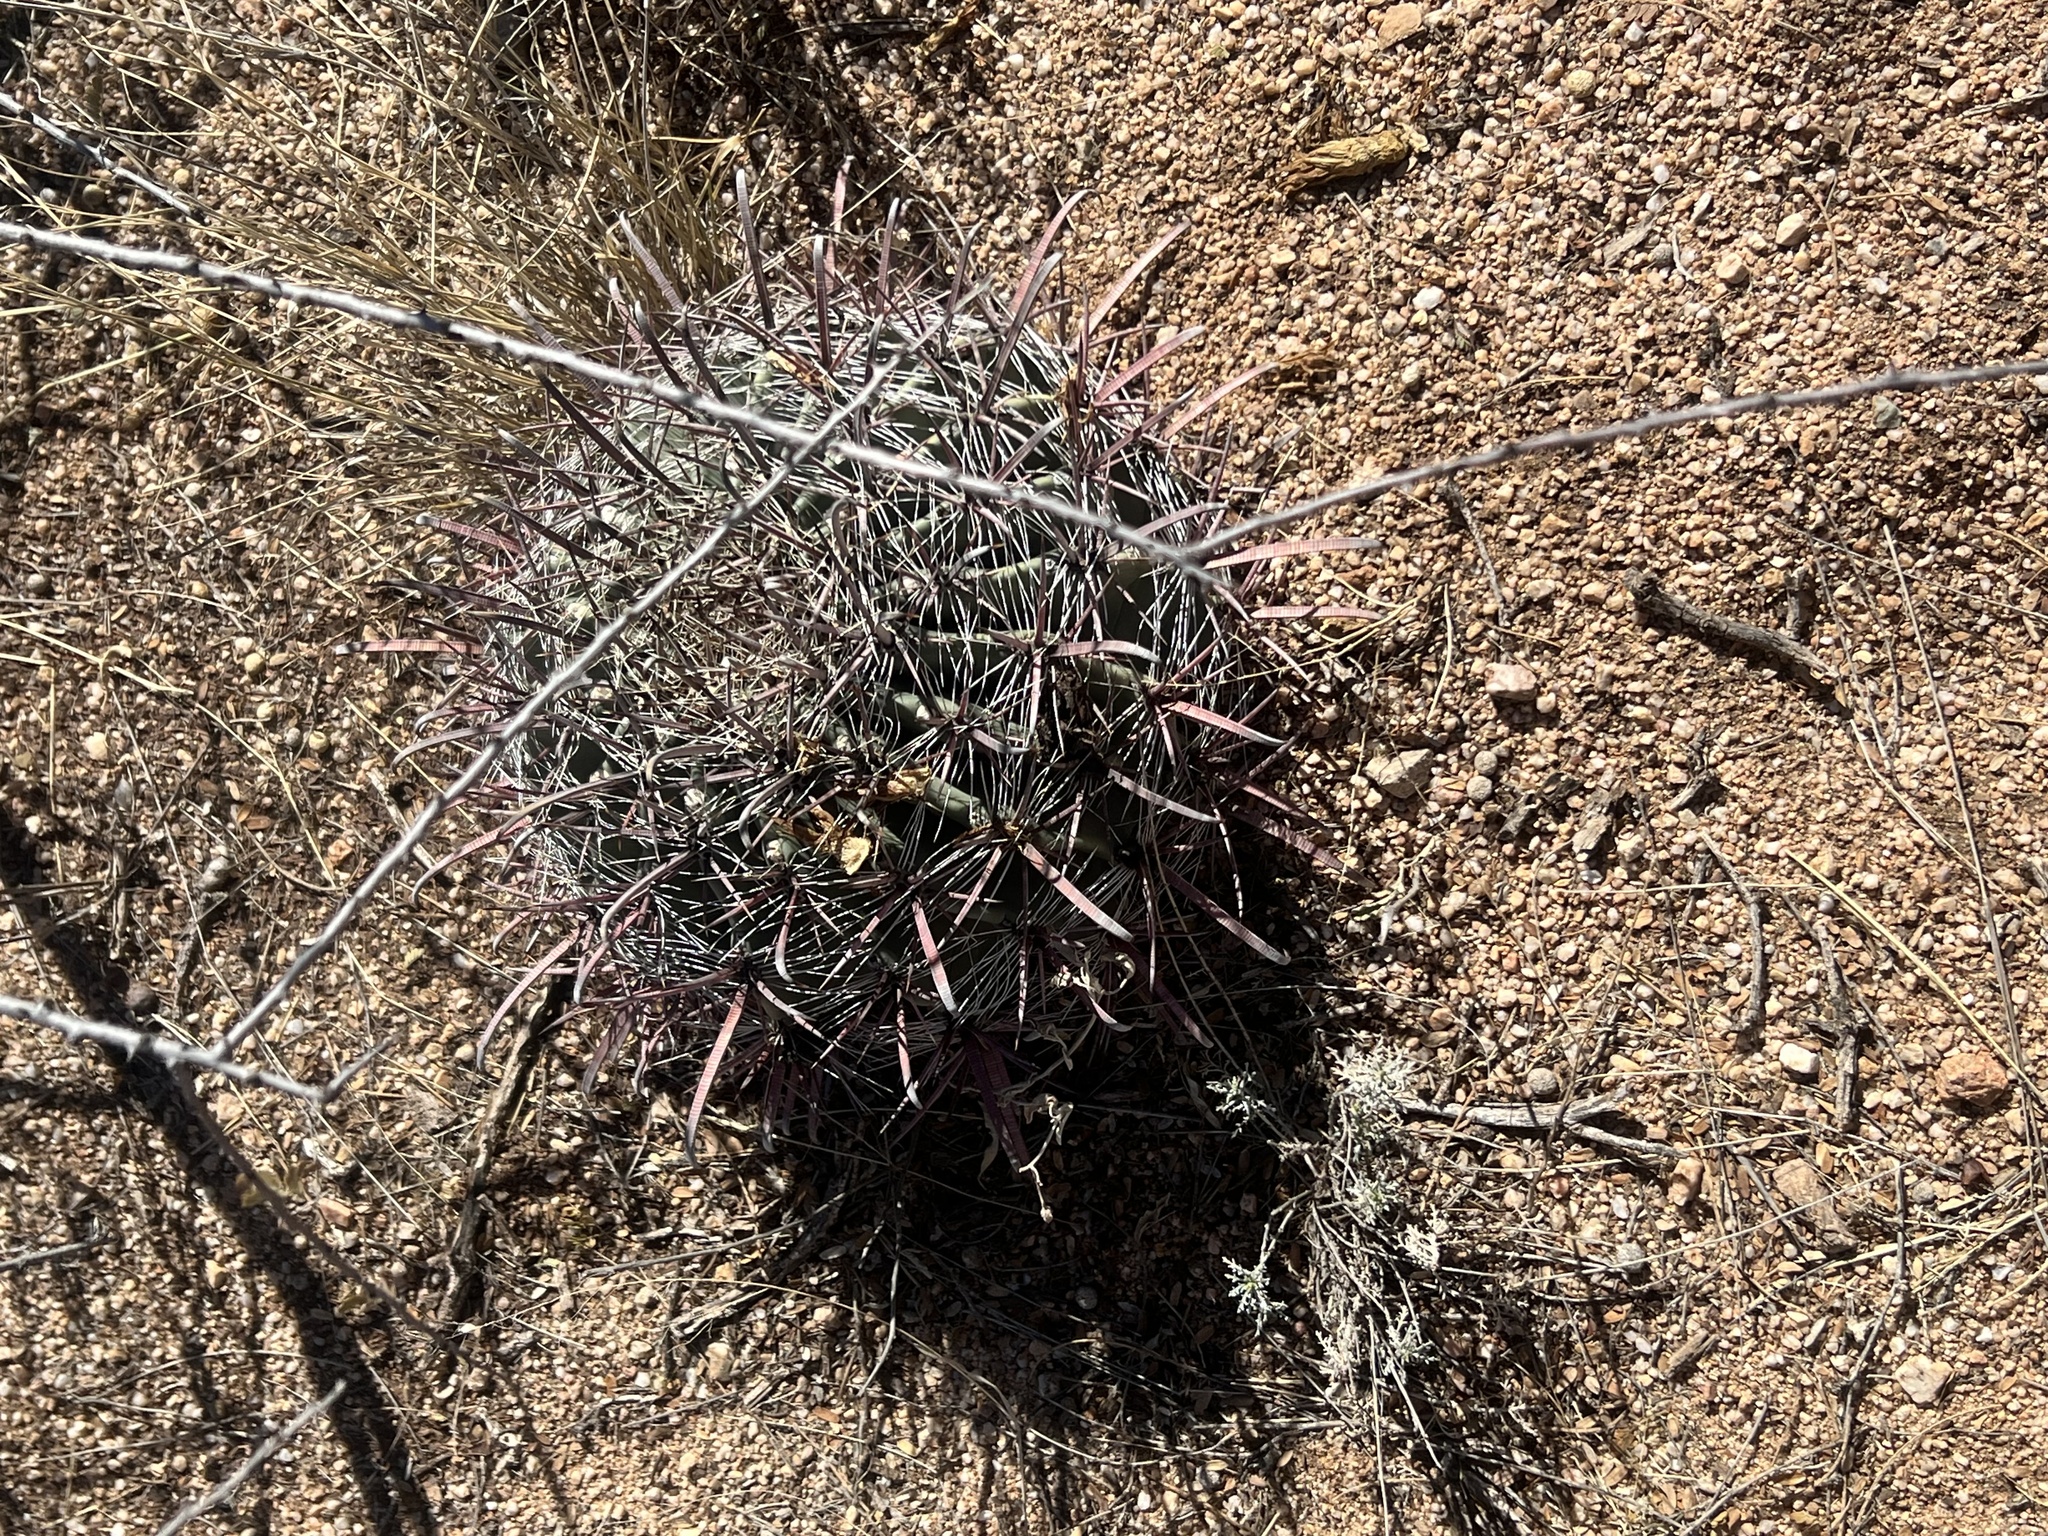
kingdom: Plantae
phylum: Tracheophyta
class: Magnoliopsida
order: Caryophyllales
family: Cactaceae
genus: Ferocactus
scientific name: Ferocactus wislizeni
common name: Candy barrel cactus
